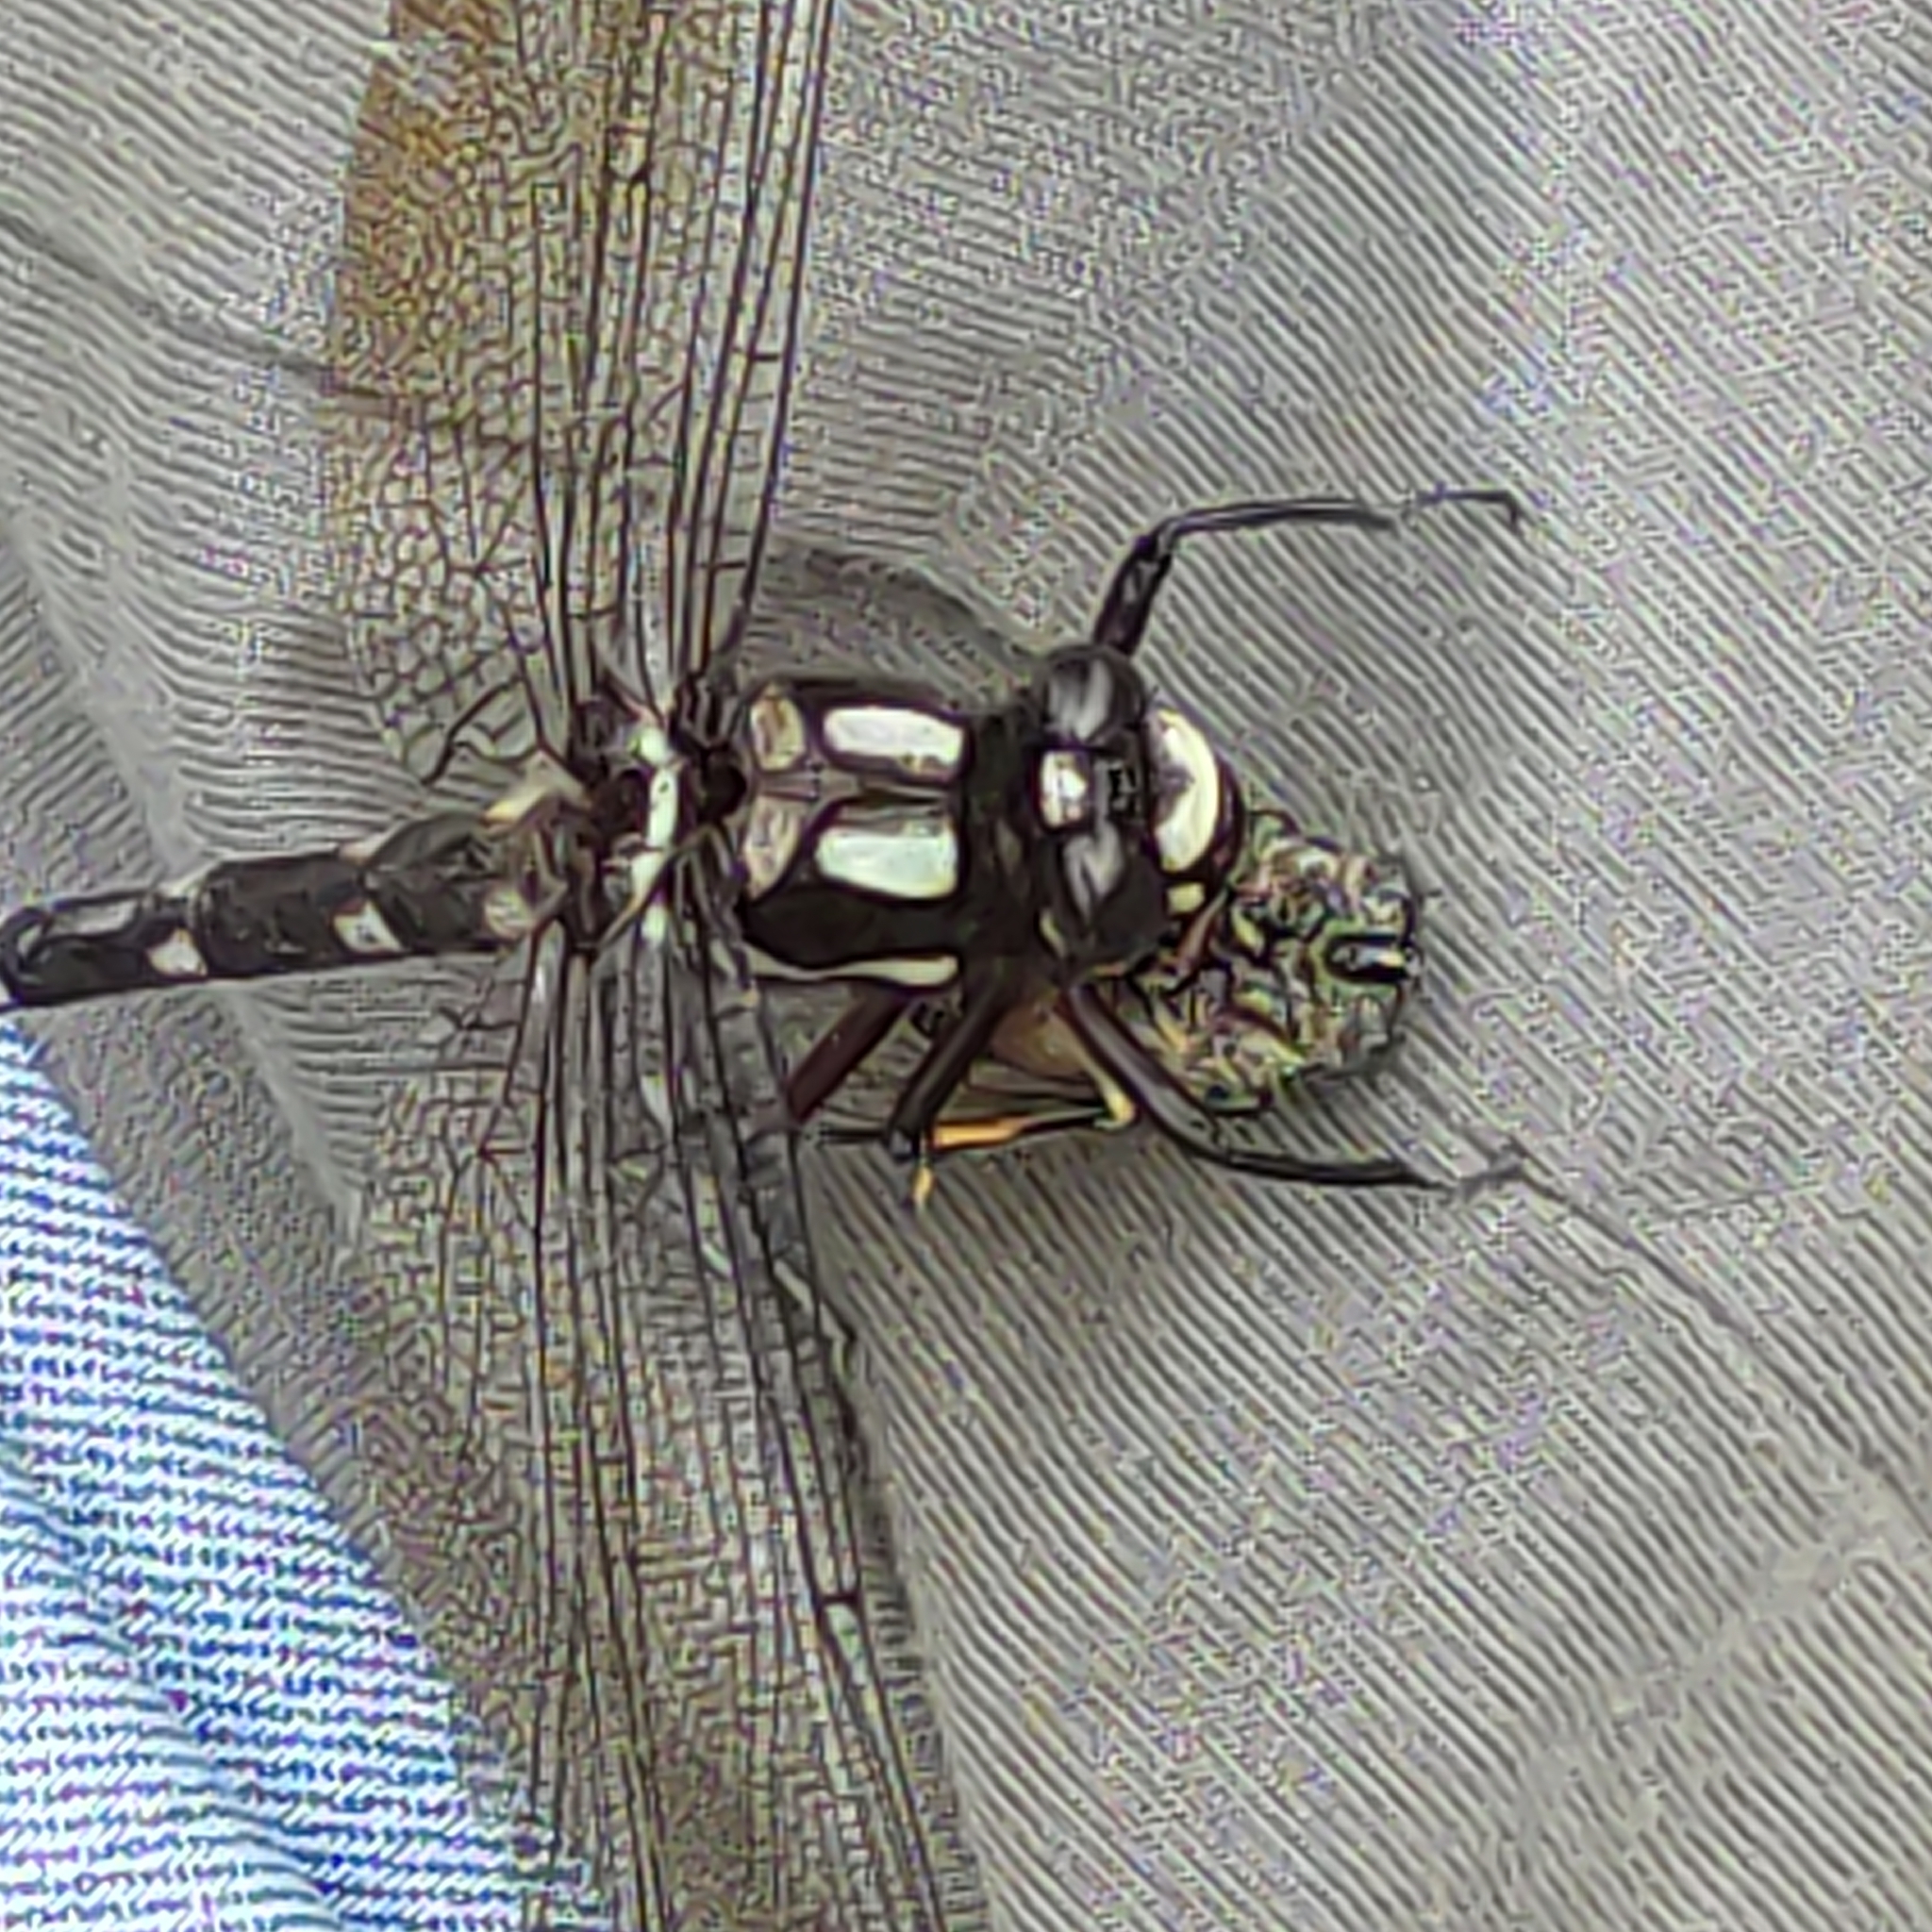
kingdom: Animalia
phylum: Arthropoda
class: Insecta
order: Odonata
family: Petaluridae
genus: Uropetala
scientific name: Uropetala carovei
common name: Bush giant dragonfly
